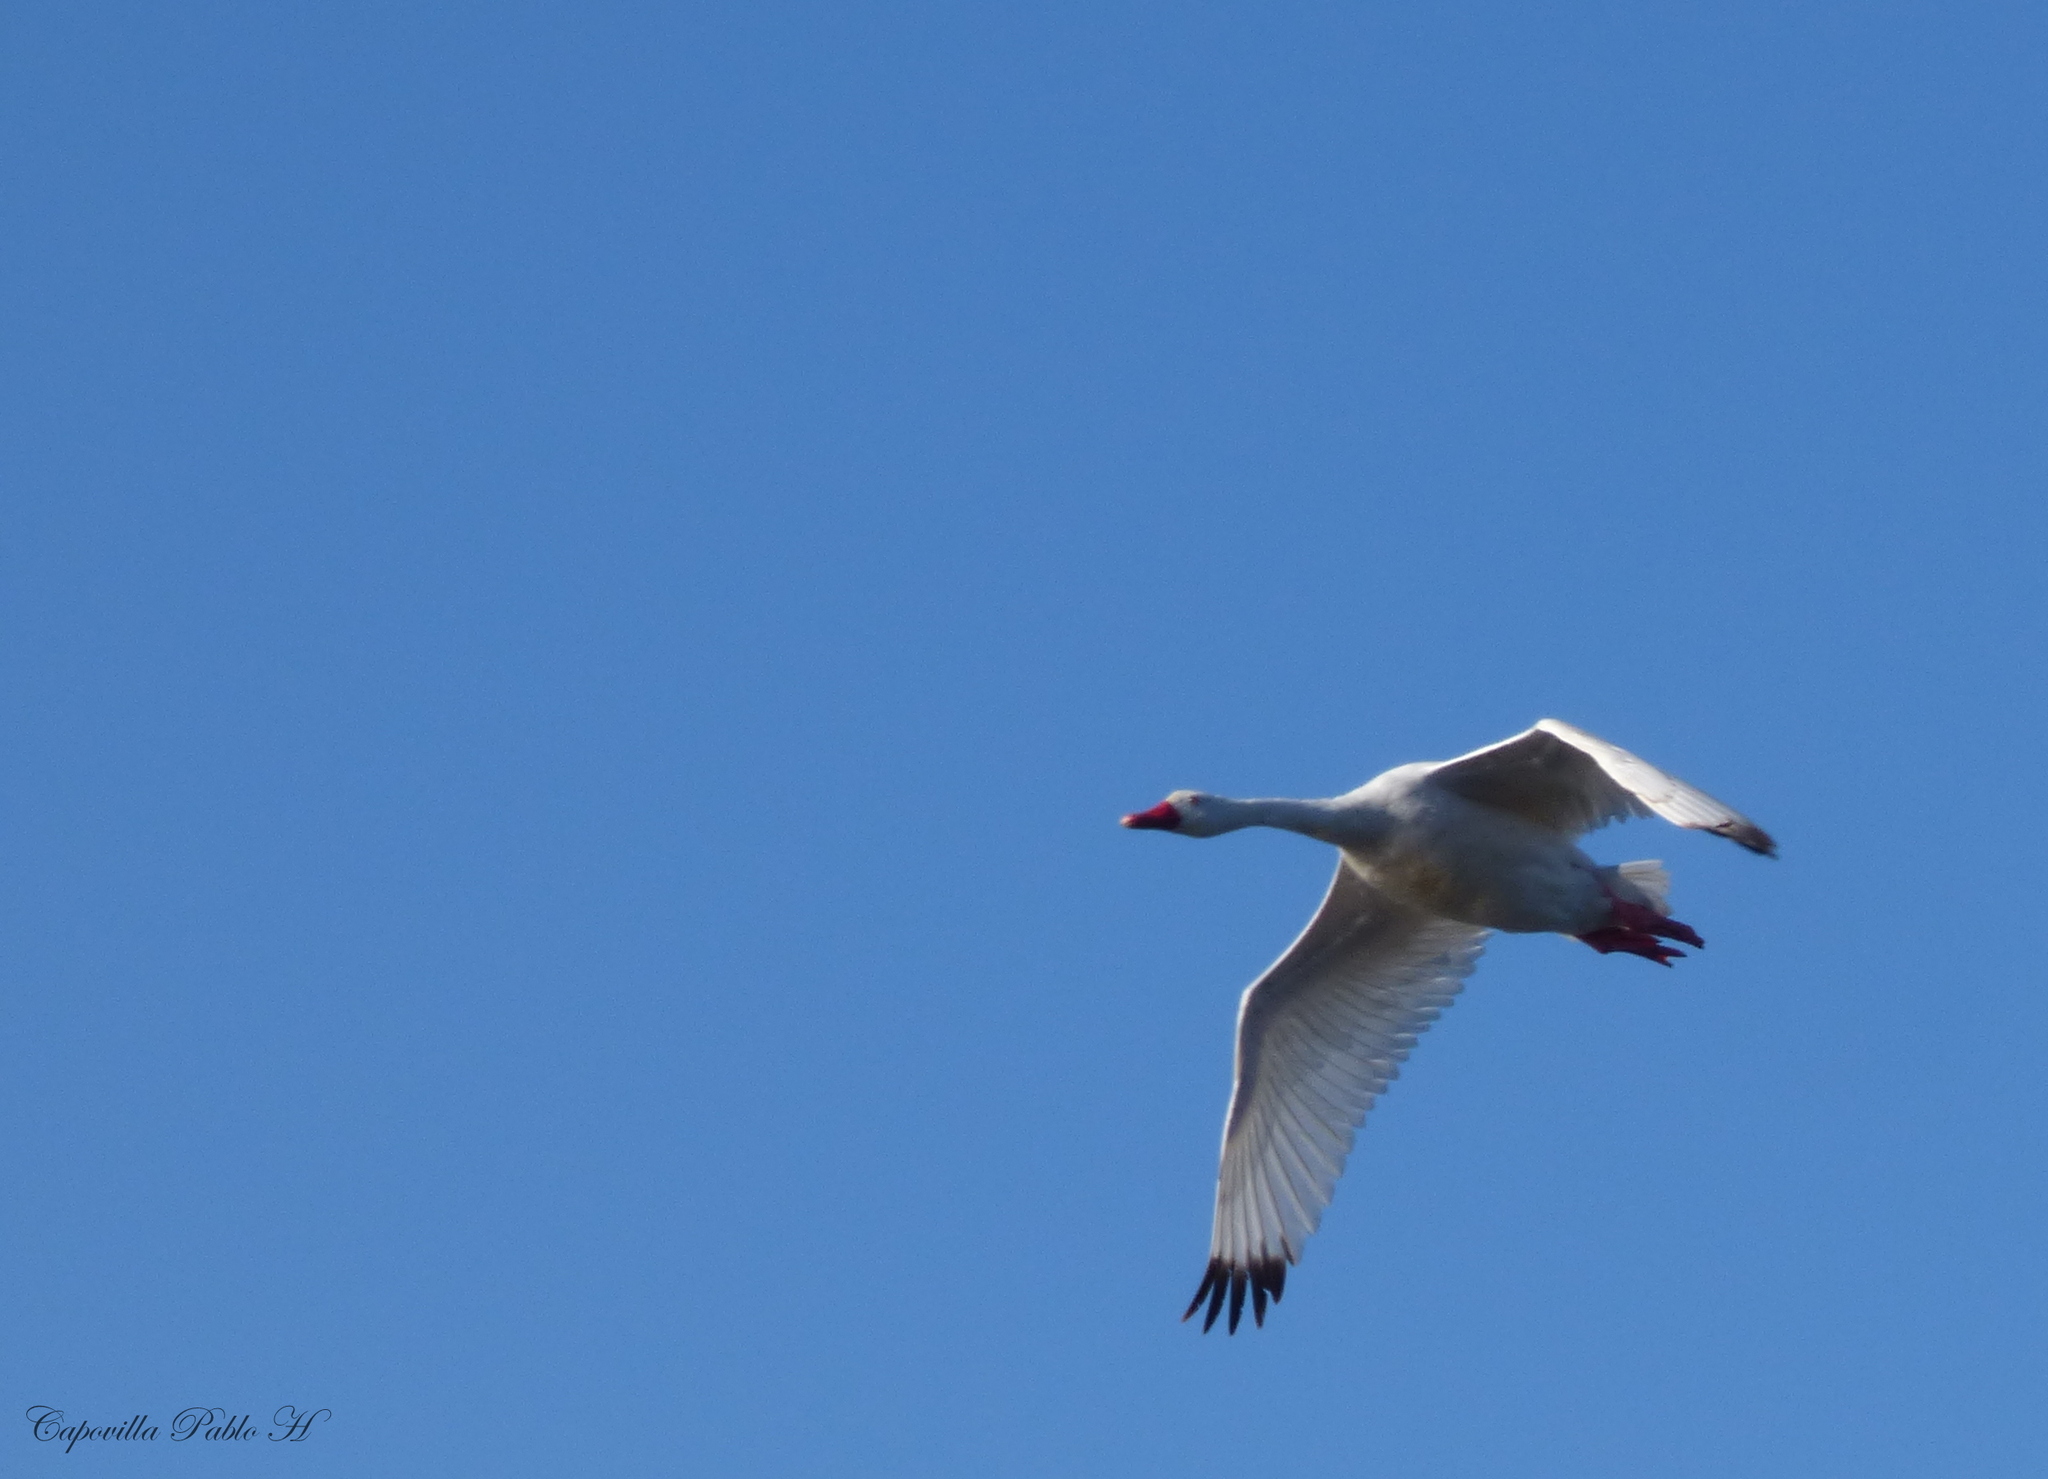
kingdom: Animalia
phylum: Chordata
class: Aves
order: Anseriformes
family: Anatidae
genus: Coscoroba
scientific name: Coscoroba coscoroba
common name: Coscoroba swan
